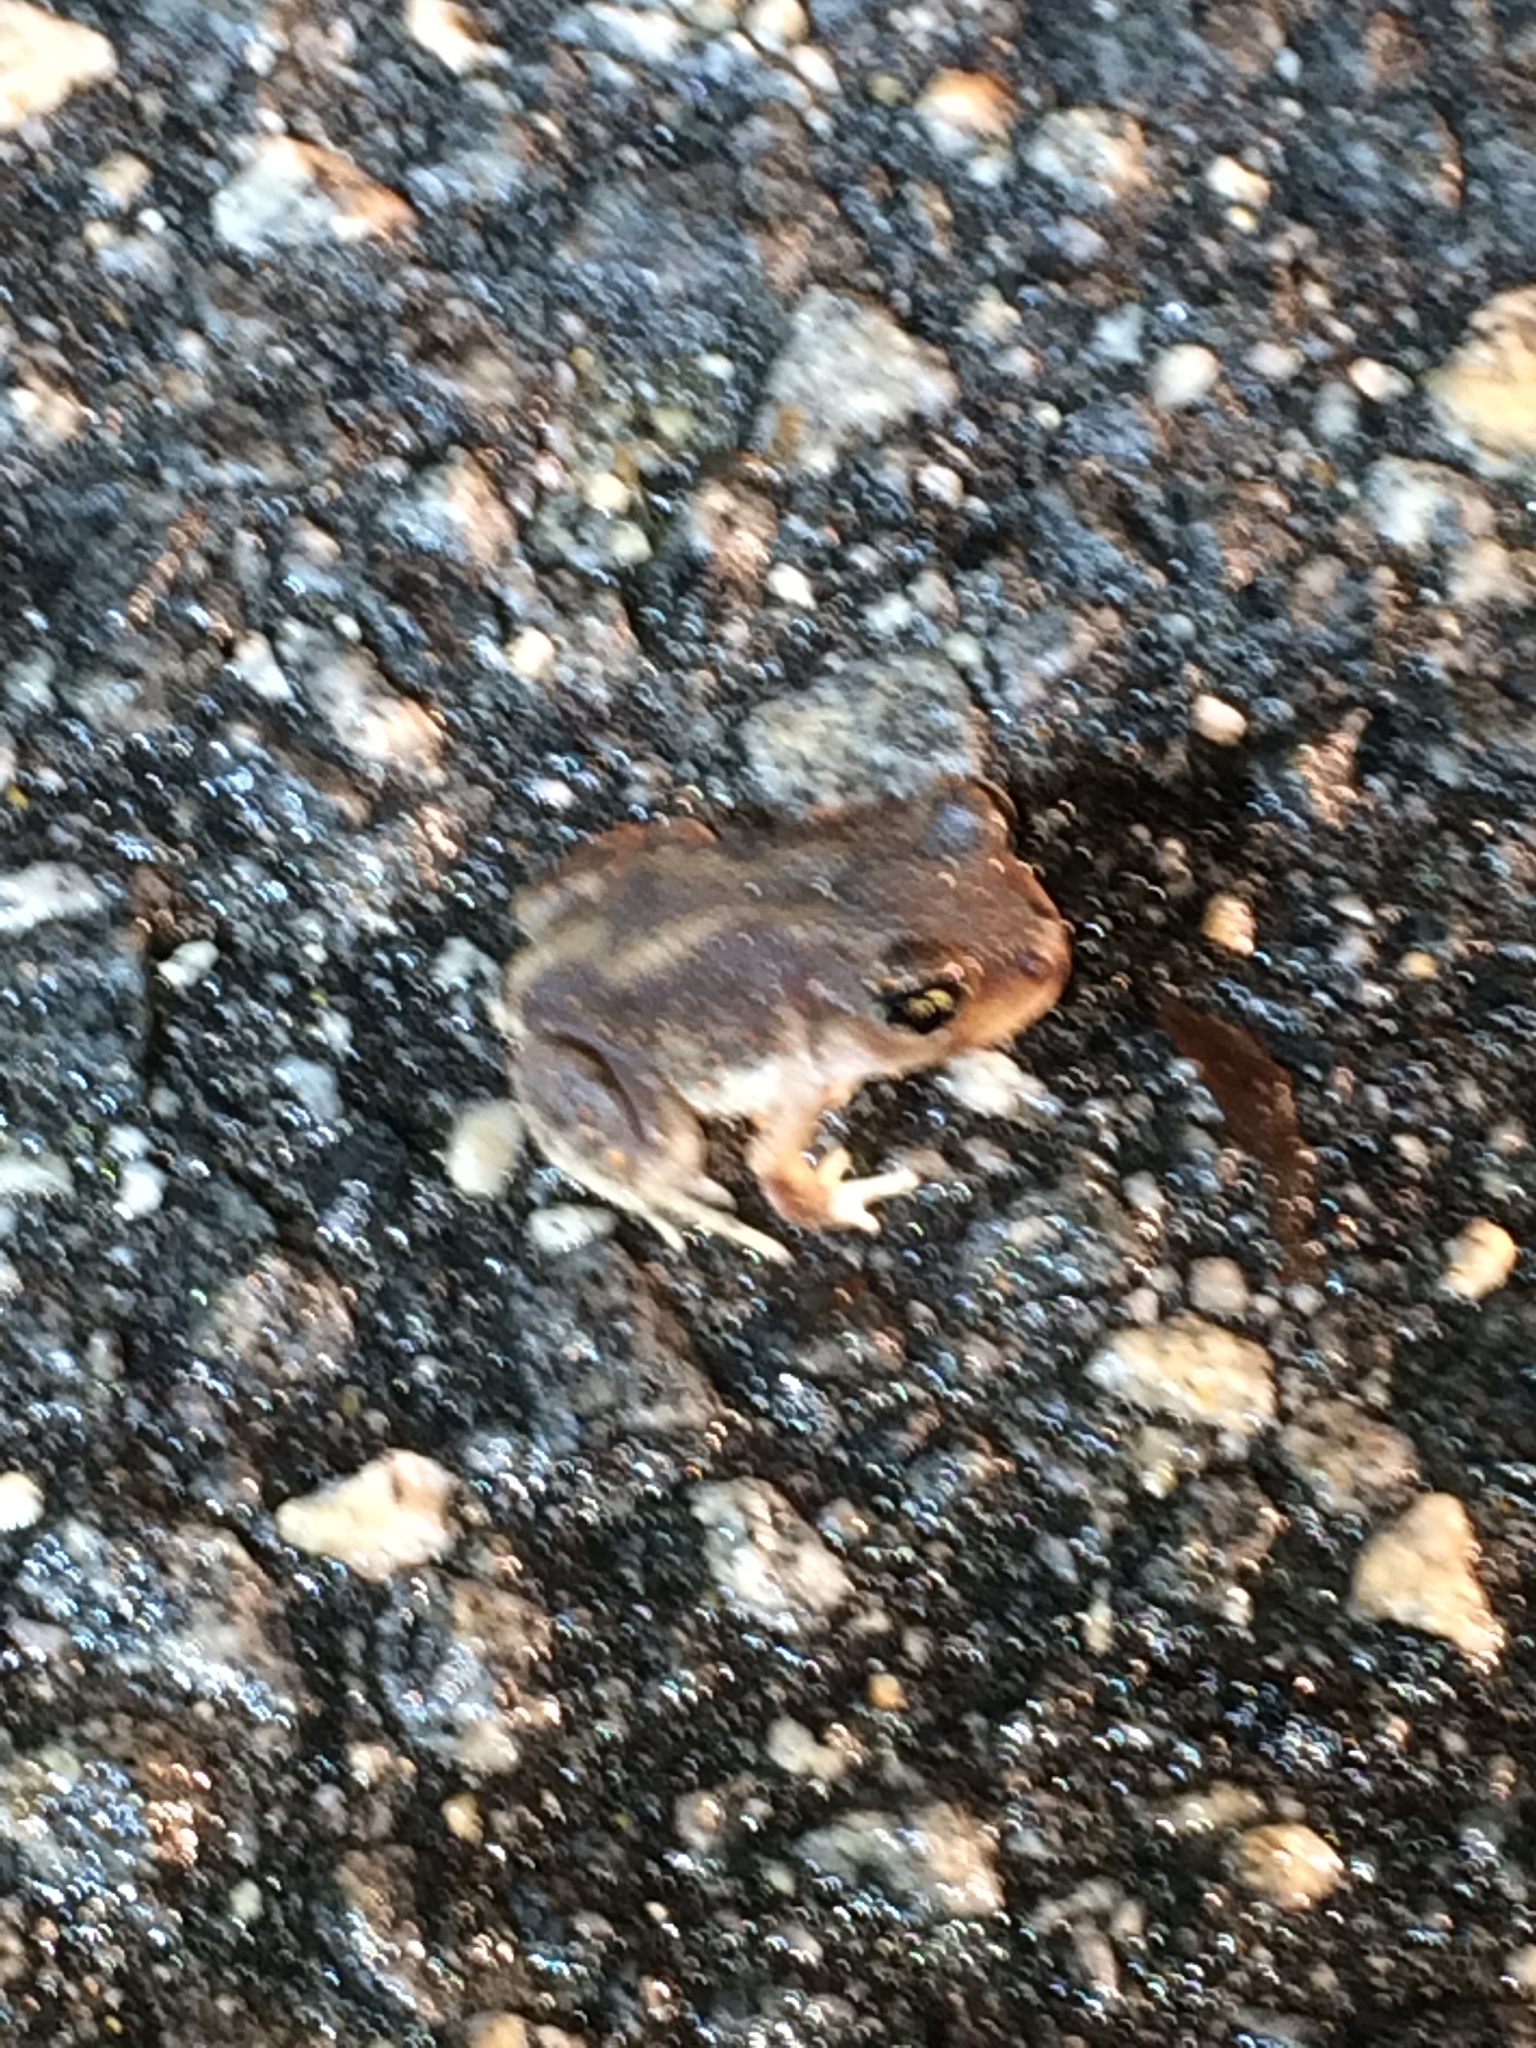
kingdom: Animalia
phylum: Chordata
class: Amphibia
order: Anura
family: Scaphiopodidae
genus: Scaphiopus
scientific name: Scaphiopus holbrookii
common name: Eastern spadefoot toad
